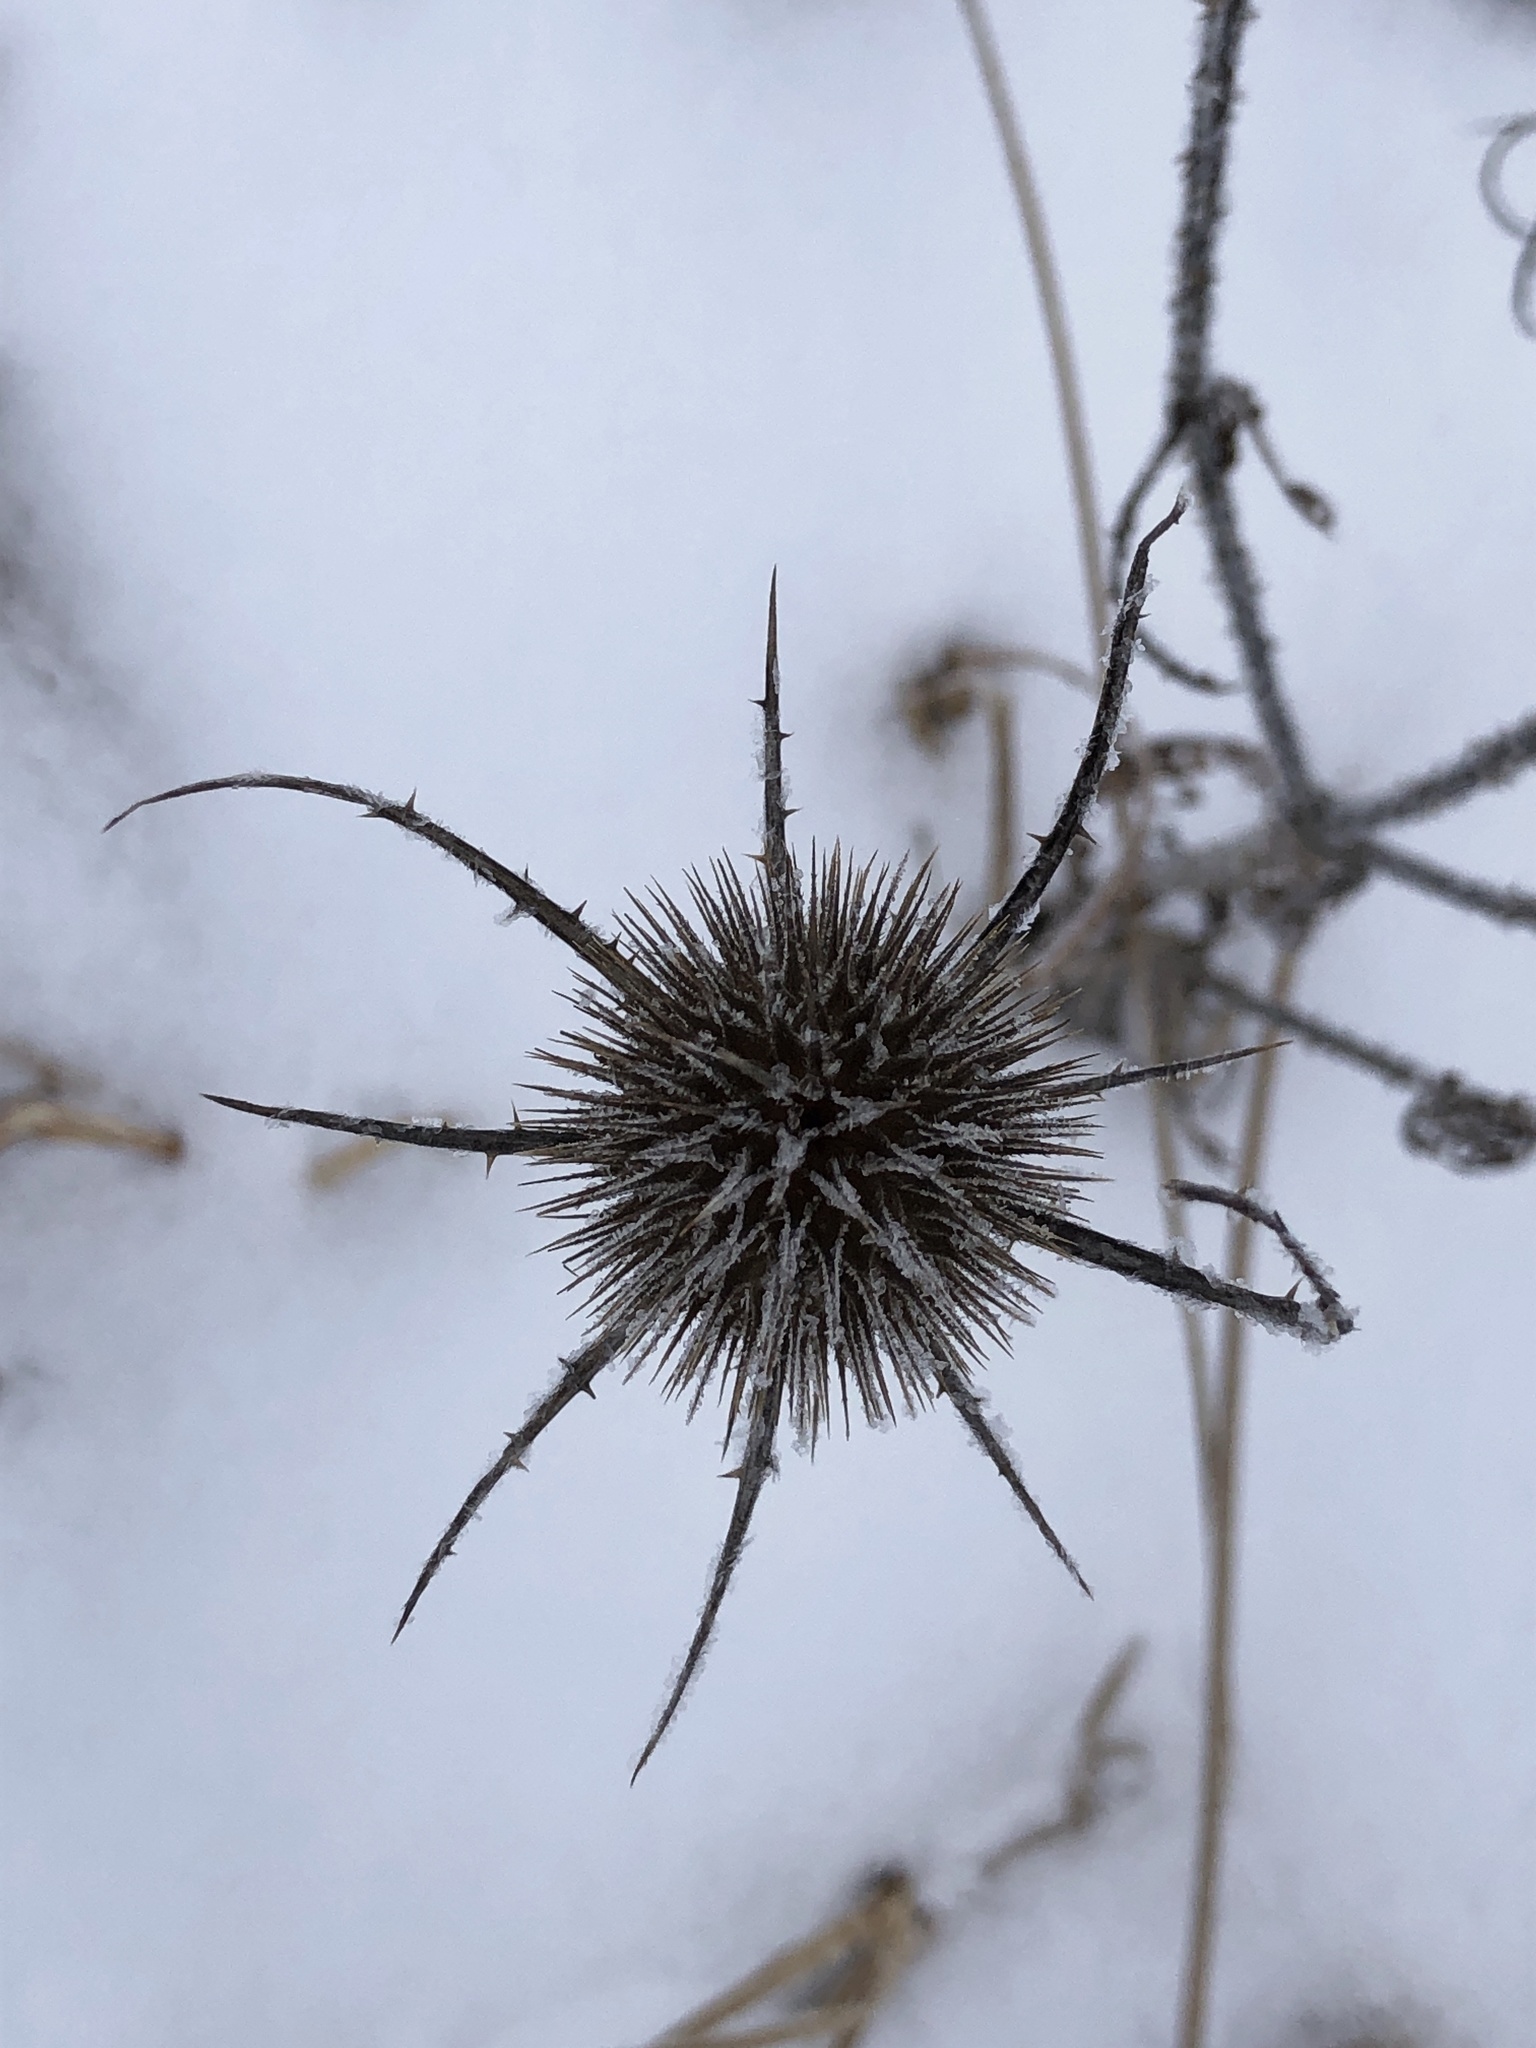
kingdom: Plantae
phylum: Tracheophyta
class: Magnoliopsida
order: Dipsacales
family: Caprifoliaceae
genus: Dipsacus
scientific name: Dipsacus fullonum
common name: Teasel
